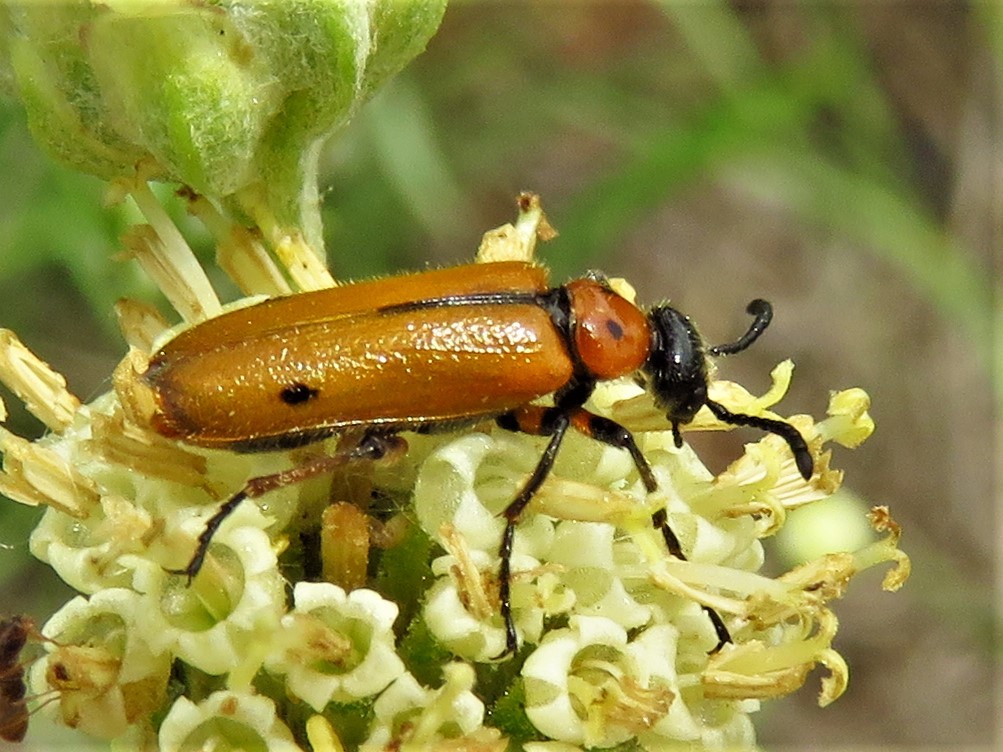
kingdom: Animalia
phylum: Arthropoda
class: Insecta
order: Coleoptera
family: Meloidae
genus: Lytta
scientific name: Lytta biguttata
